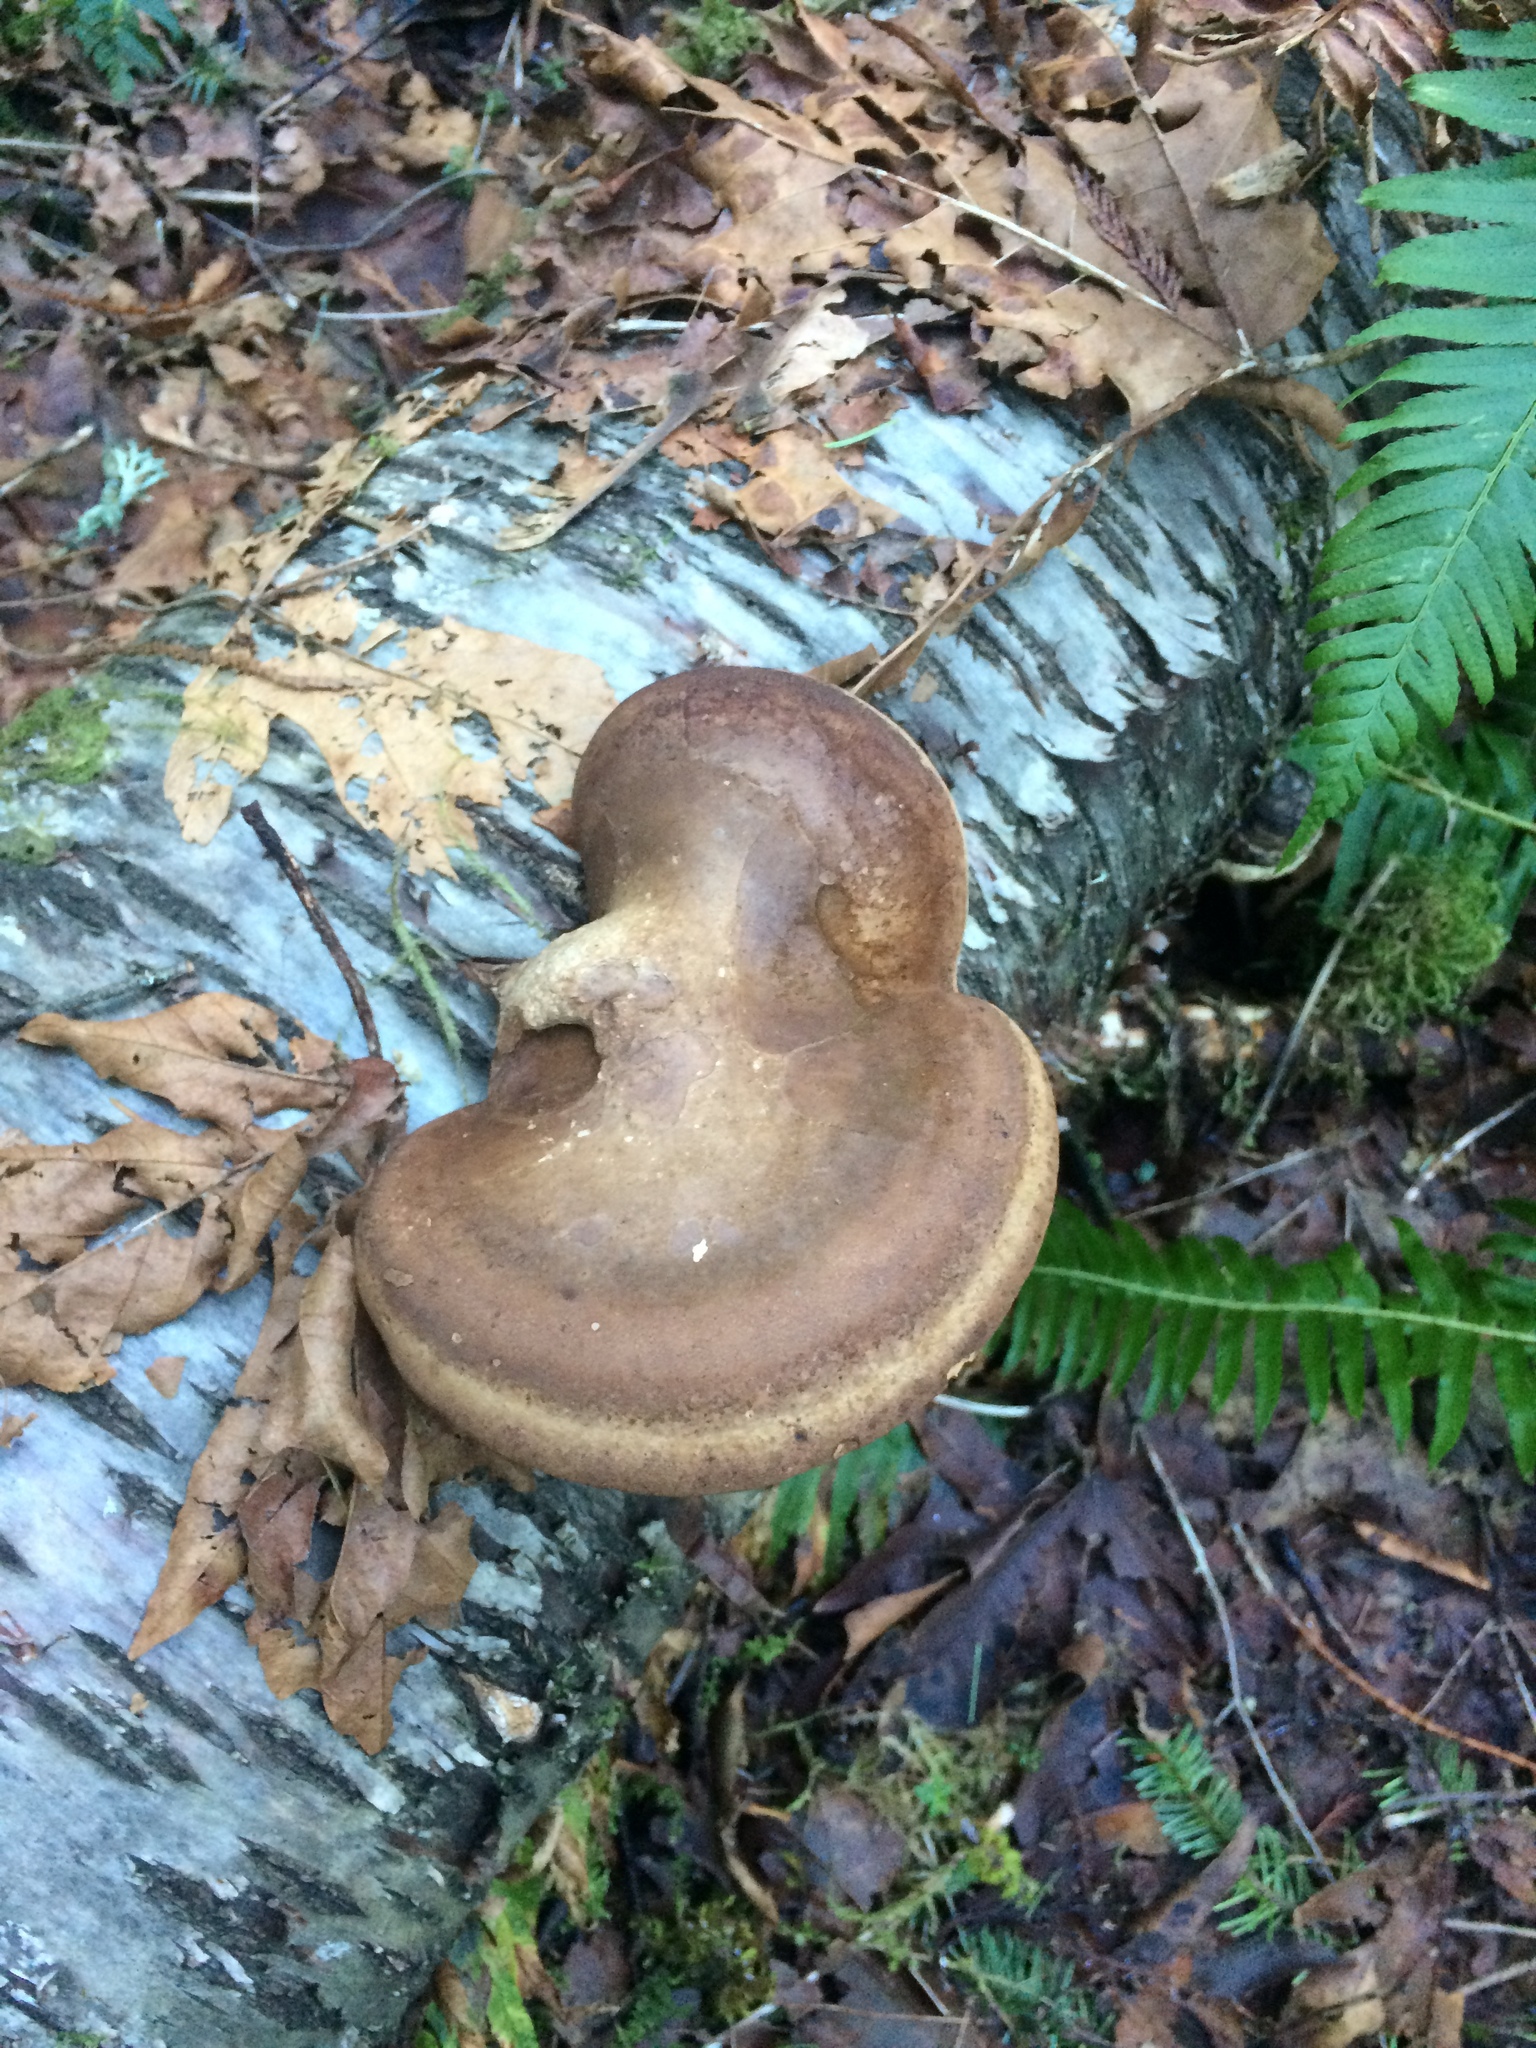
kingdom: Fungi
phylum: Basidiomycota
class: Agaricomycetes
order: Polyporales
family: Fomitopsidaceae
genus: Fomitopsis
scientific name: Fomitopsis betulina
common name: Birch polypore
